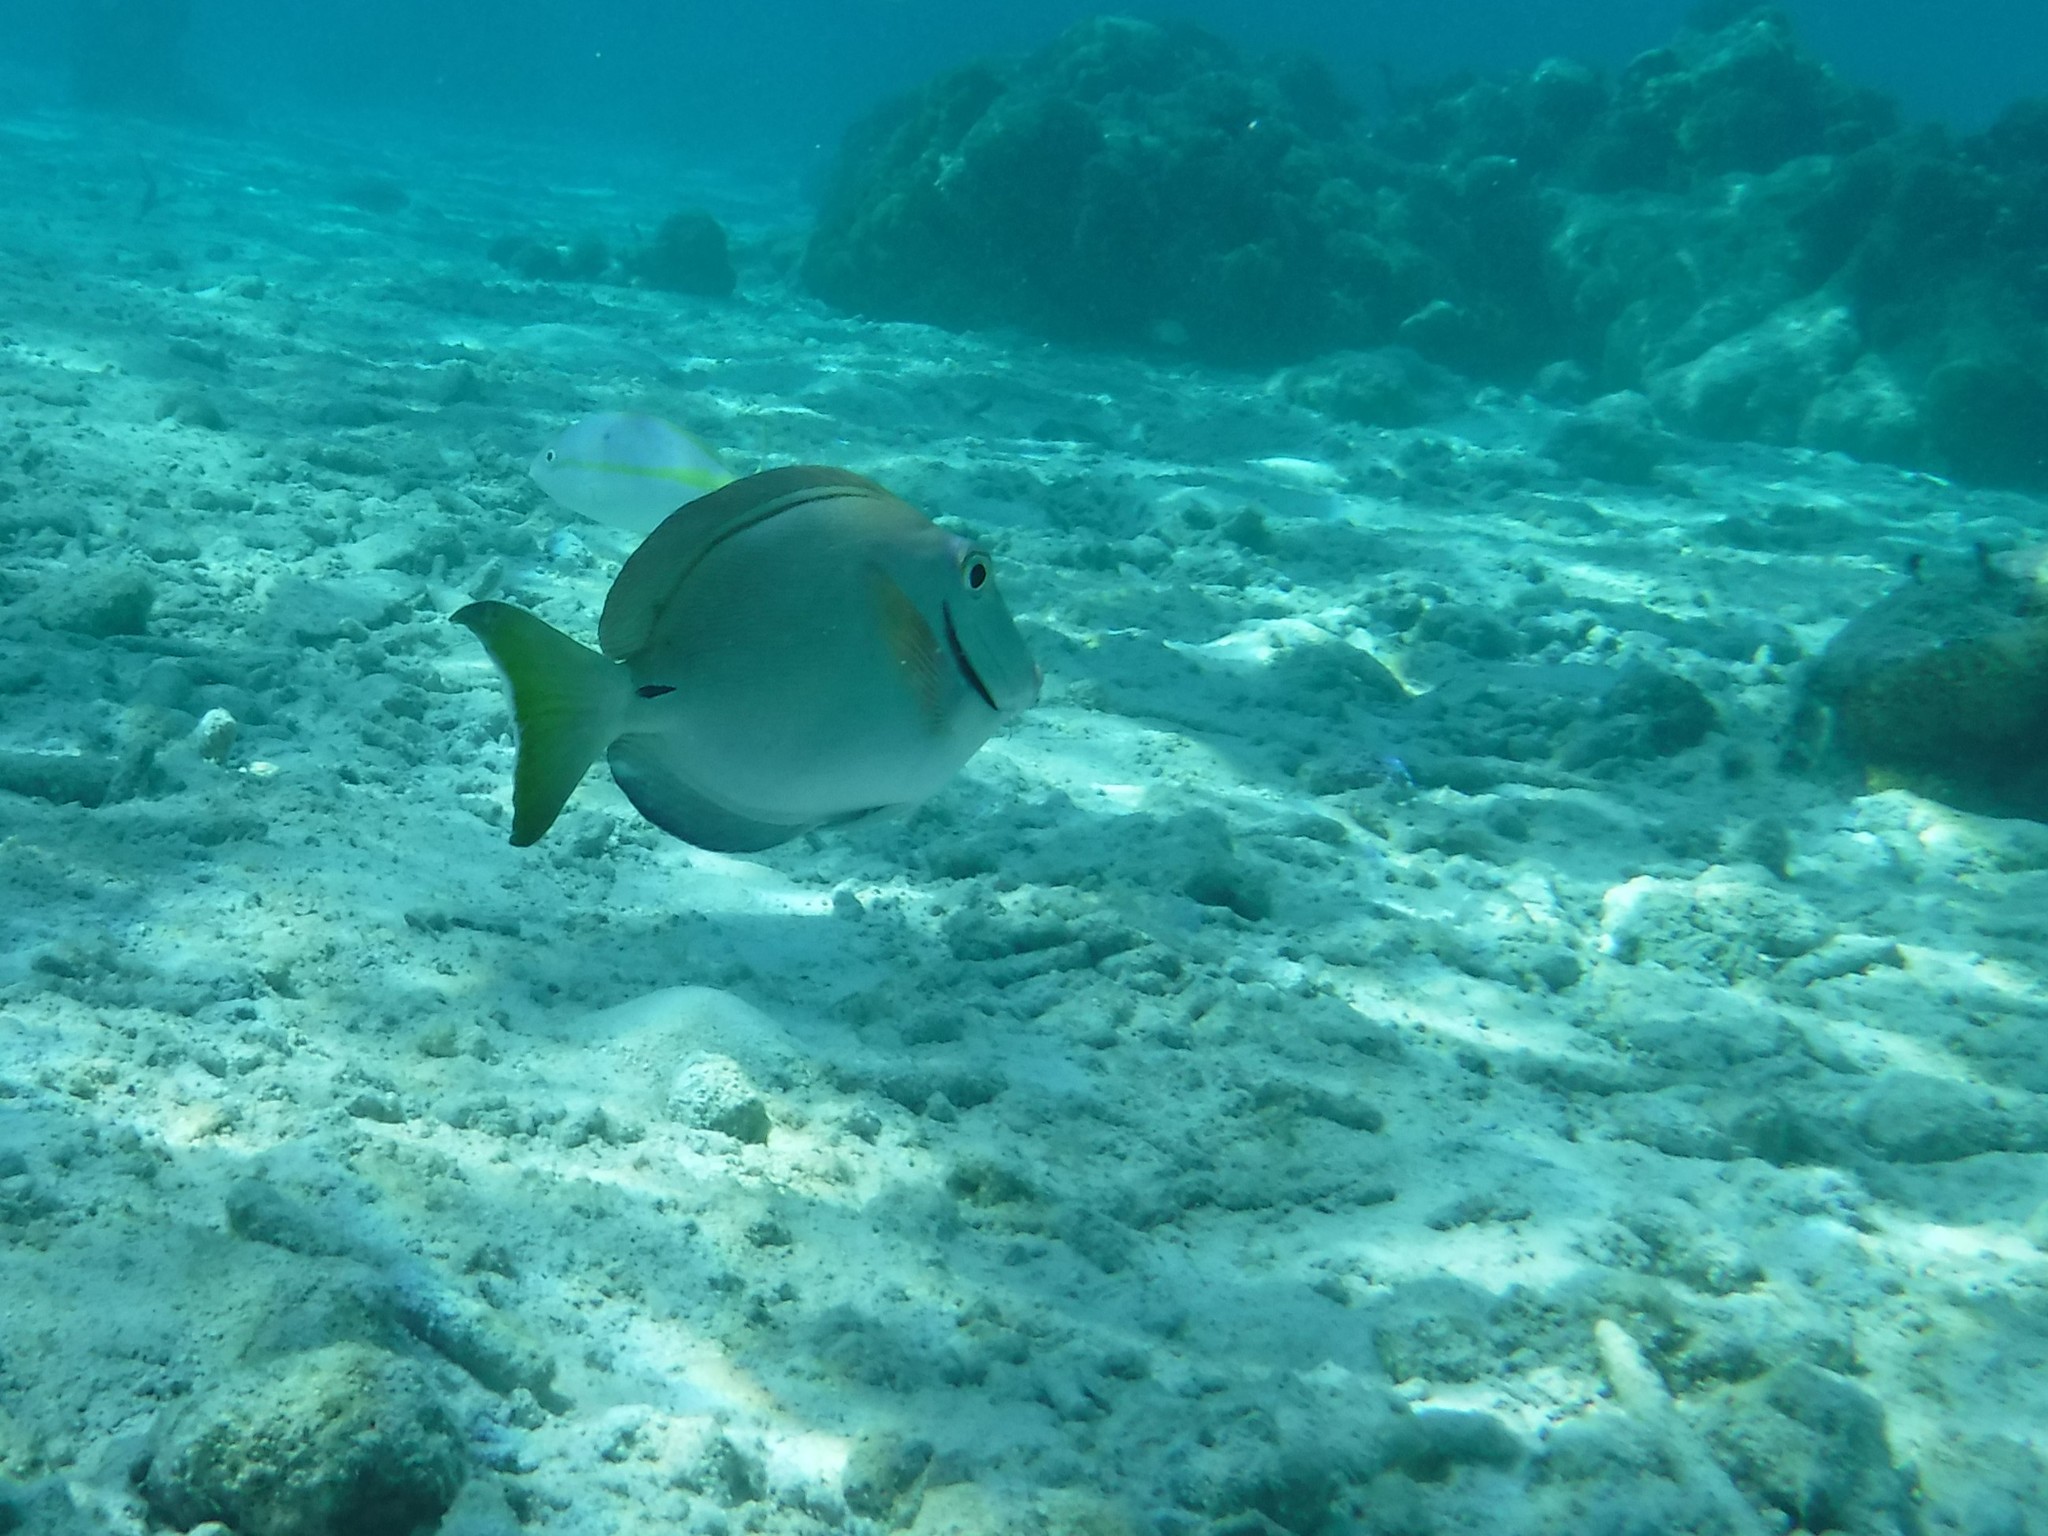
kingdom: Animalia
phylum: Chordata
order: Perciformes
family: Acanthuridae
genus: Acanthurus
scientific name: Acanthurus bahianus
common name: Ocean surgeon
